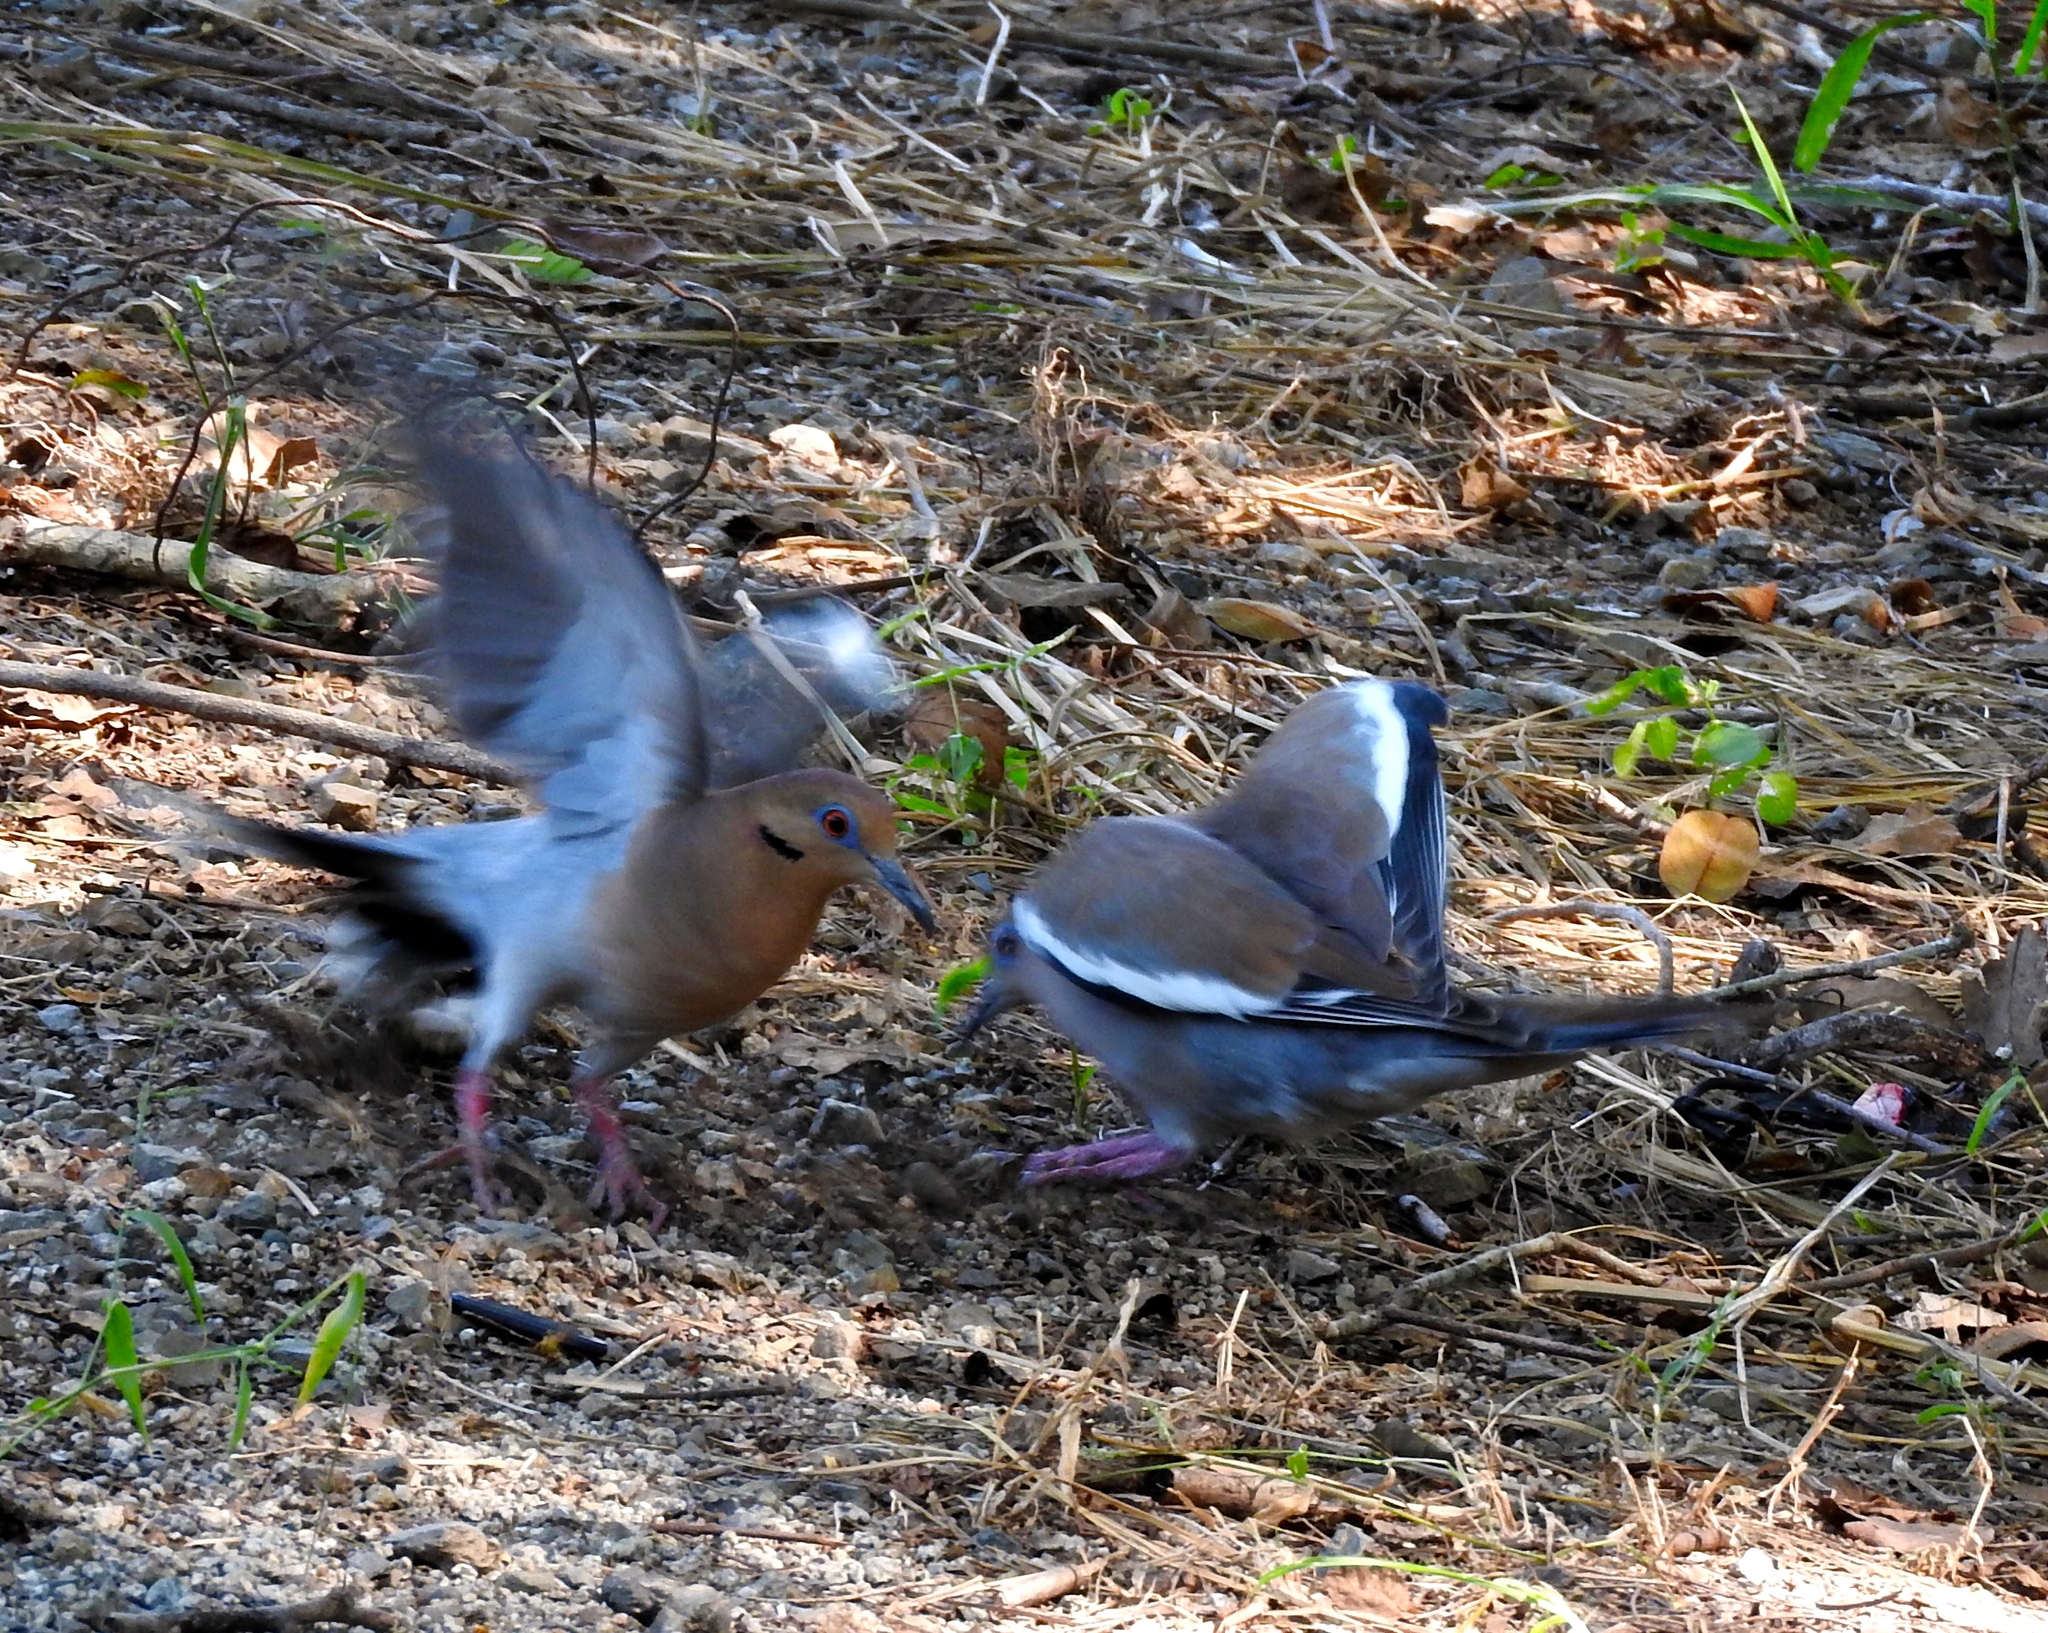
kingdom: Animalia
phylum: Chordata
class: Aves
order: Columbiformes
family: Columbidae
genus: Zenaida
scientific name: Zenaida asiatica
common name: White-winged dove
